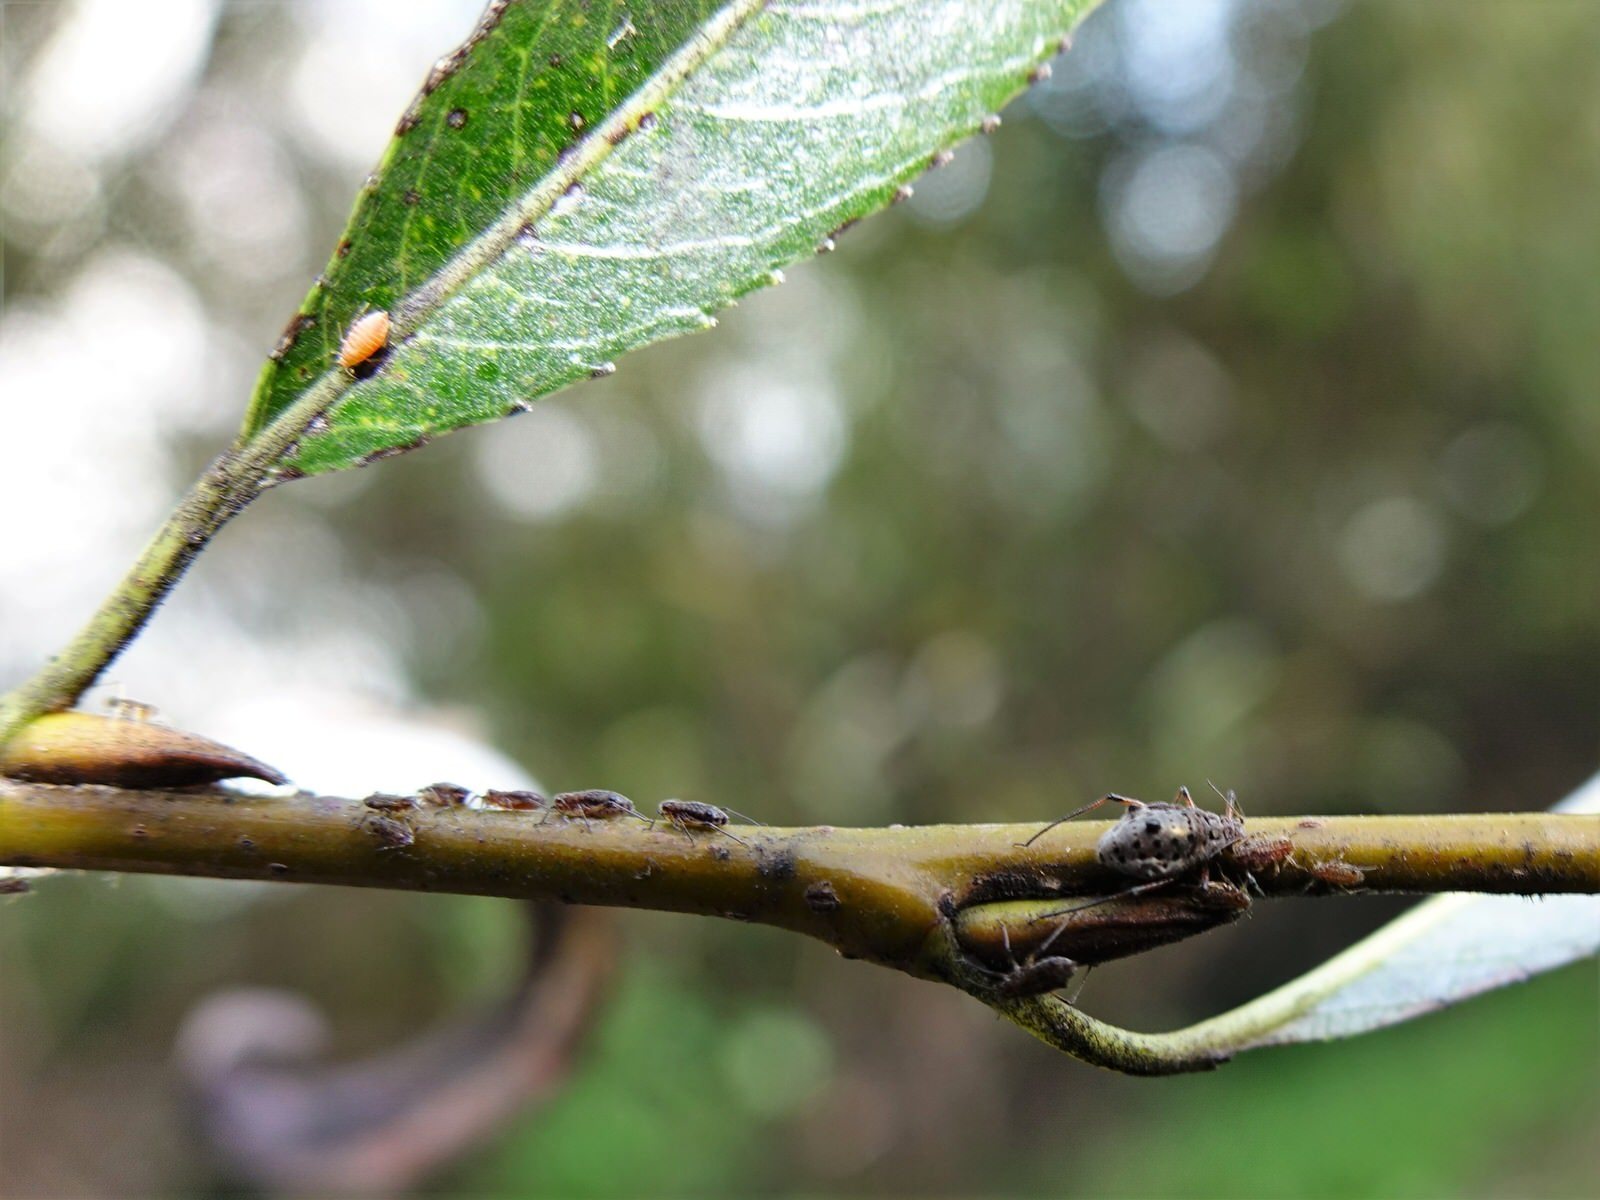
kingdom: Animalia
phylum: Arthropoda
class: Insecta
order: Hemiptera
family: Aphididae
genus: Tuberolachnus
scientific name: Tuberolachnus salignus
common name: Giant willow aphid
